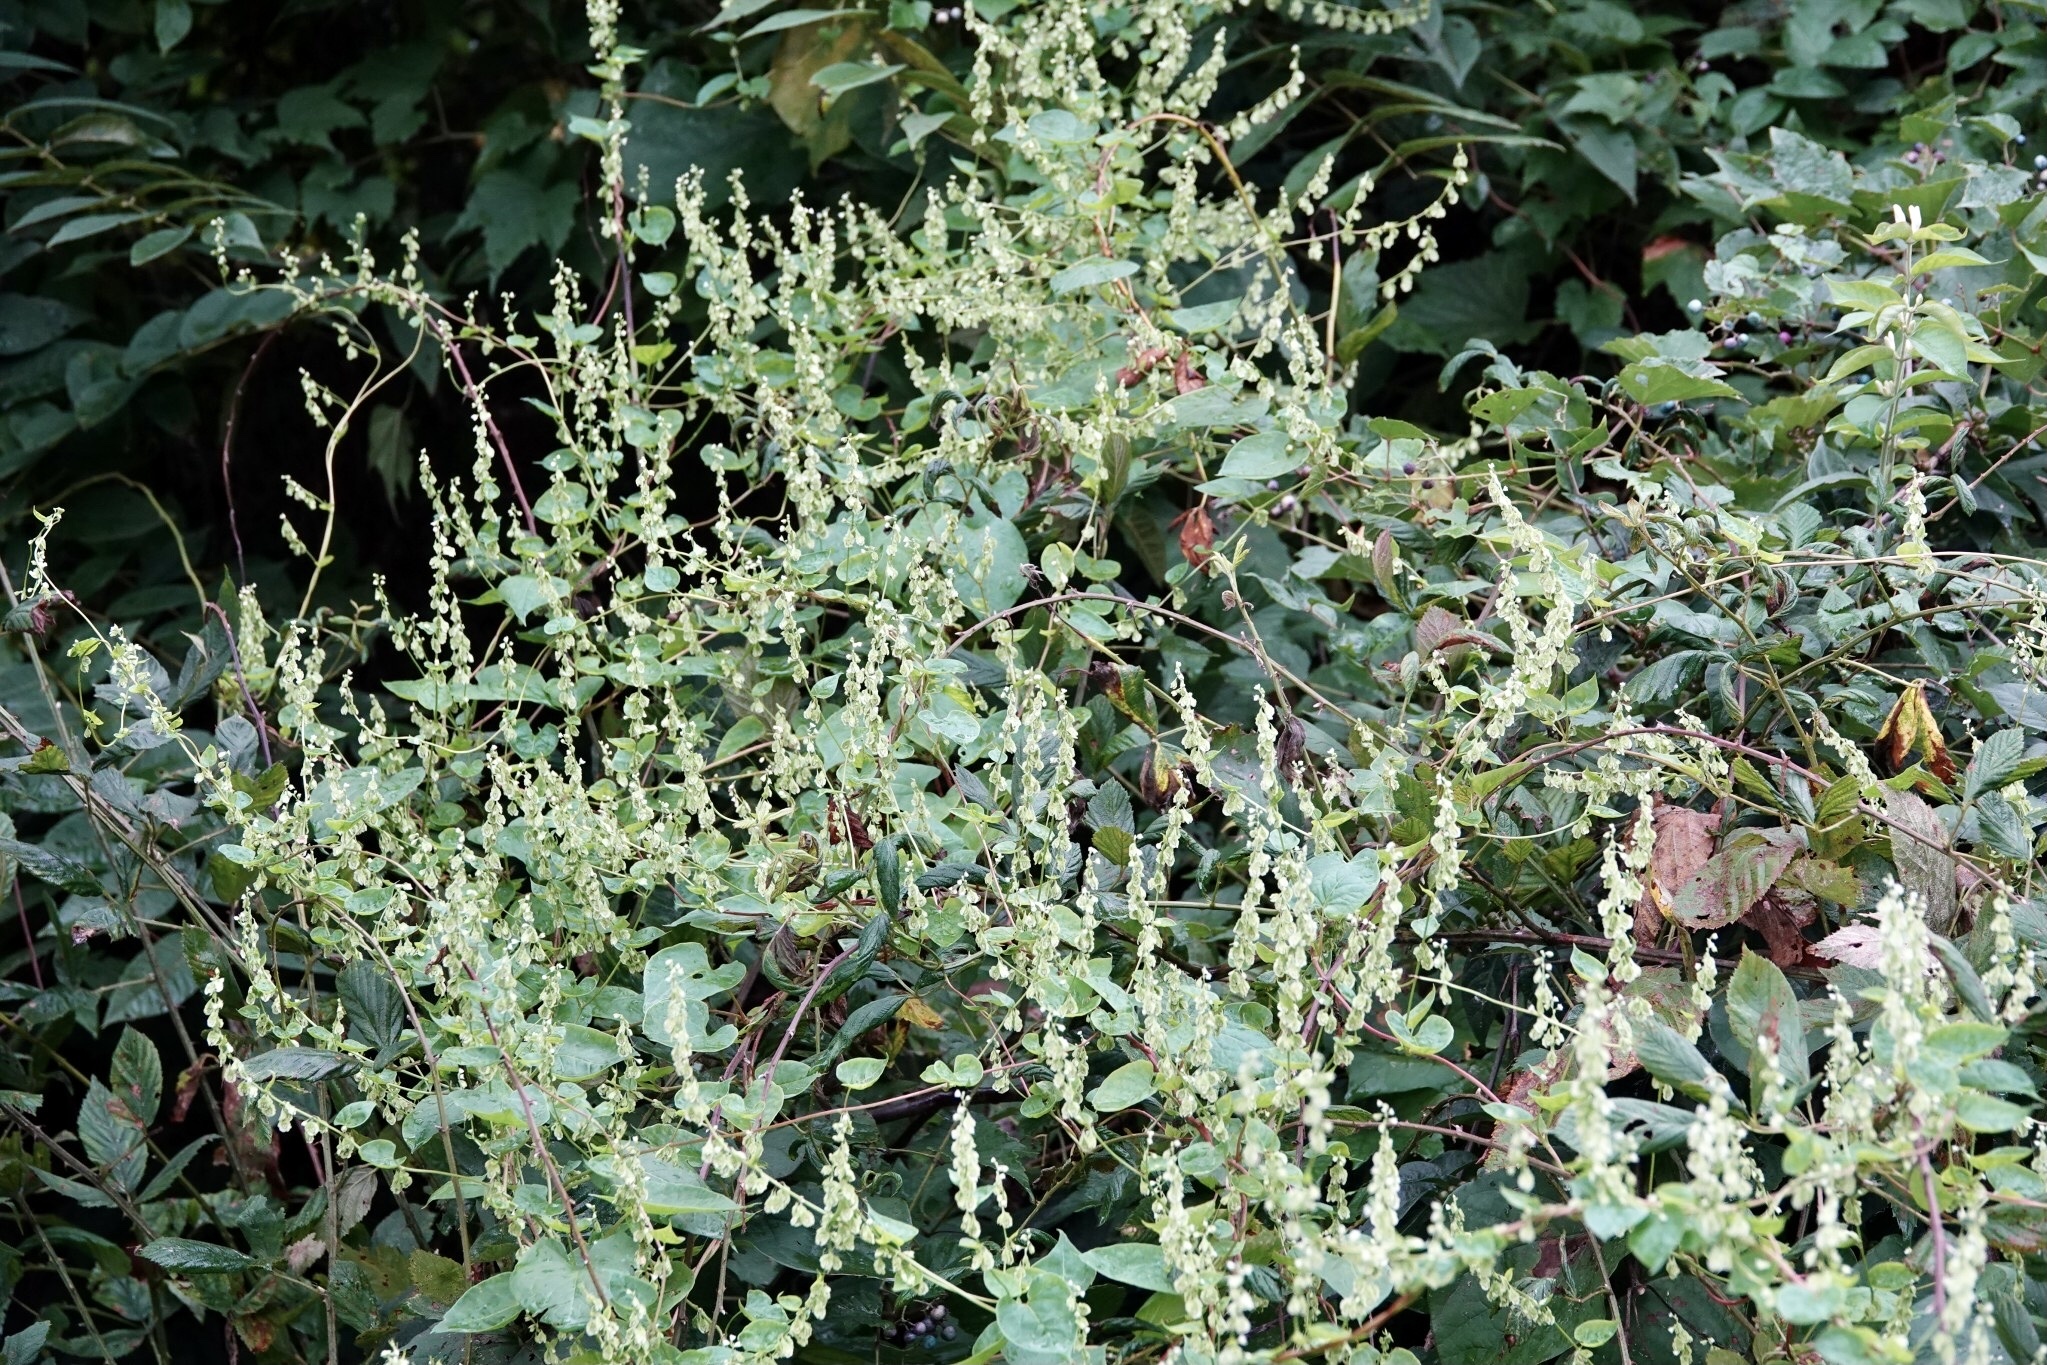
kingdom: Plantae
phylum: Tracheophyta
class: Magnoliopsida
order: Caryophyllales
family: Polygonaceae
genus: Fallopia
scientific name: Fallopia scandens
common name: Climbing false buckwheat
